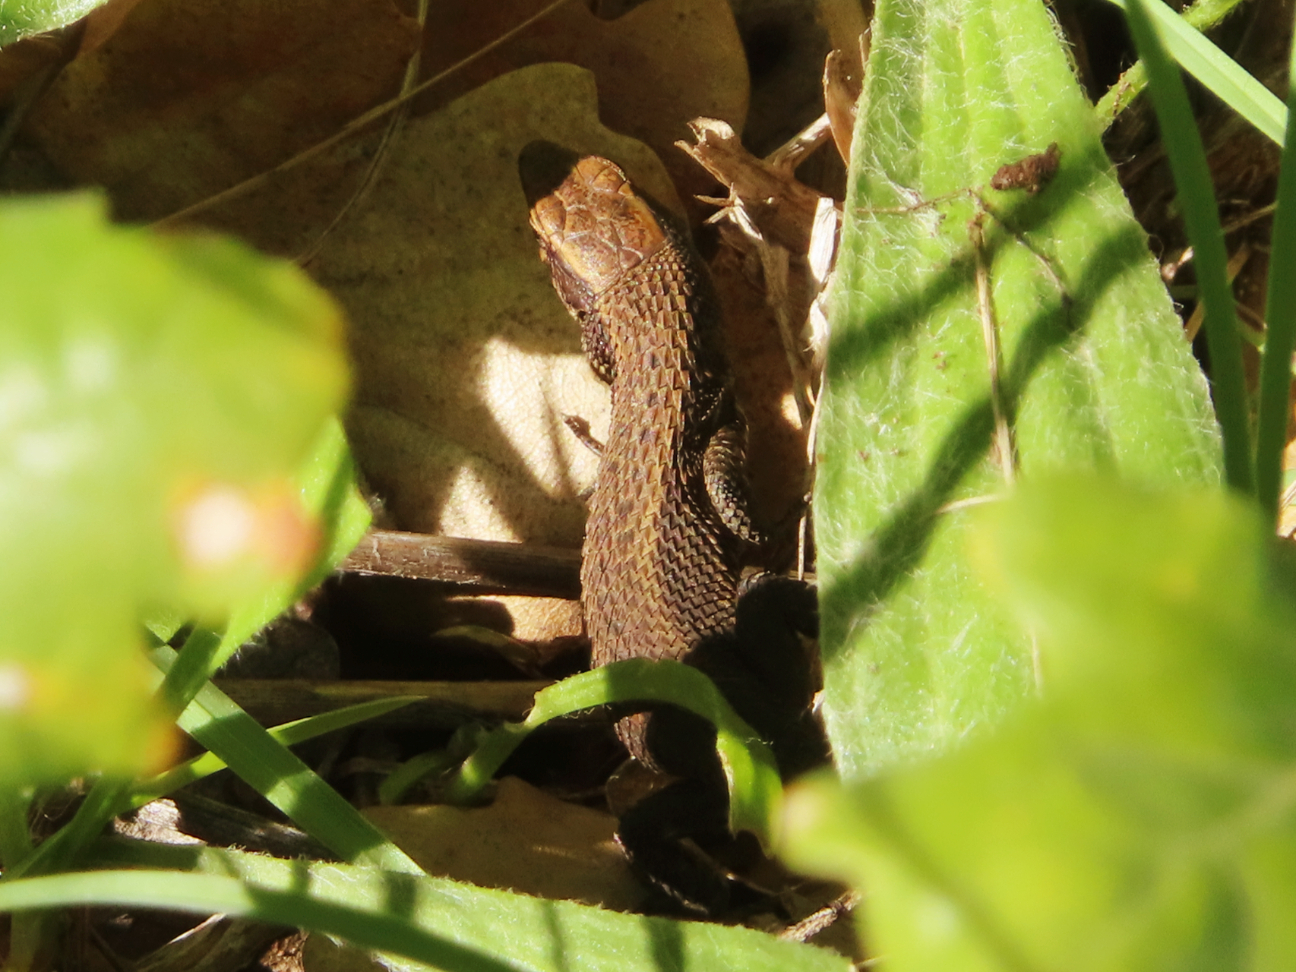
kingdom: Animalia
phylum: Chordata
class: Squamata
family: Lacertidae
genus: Algyroides
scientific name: Algyroides moreoticus
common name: Greek algyroides
